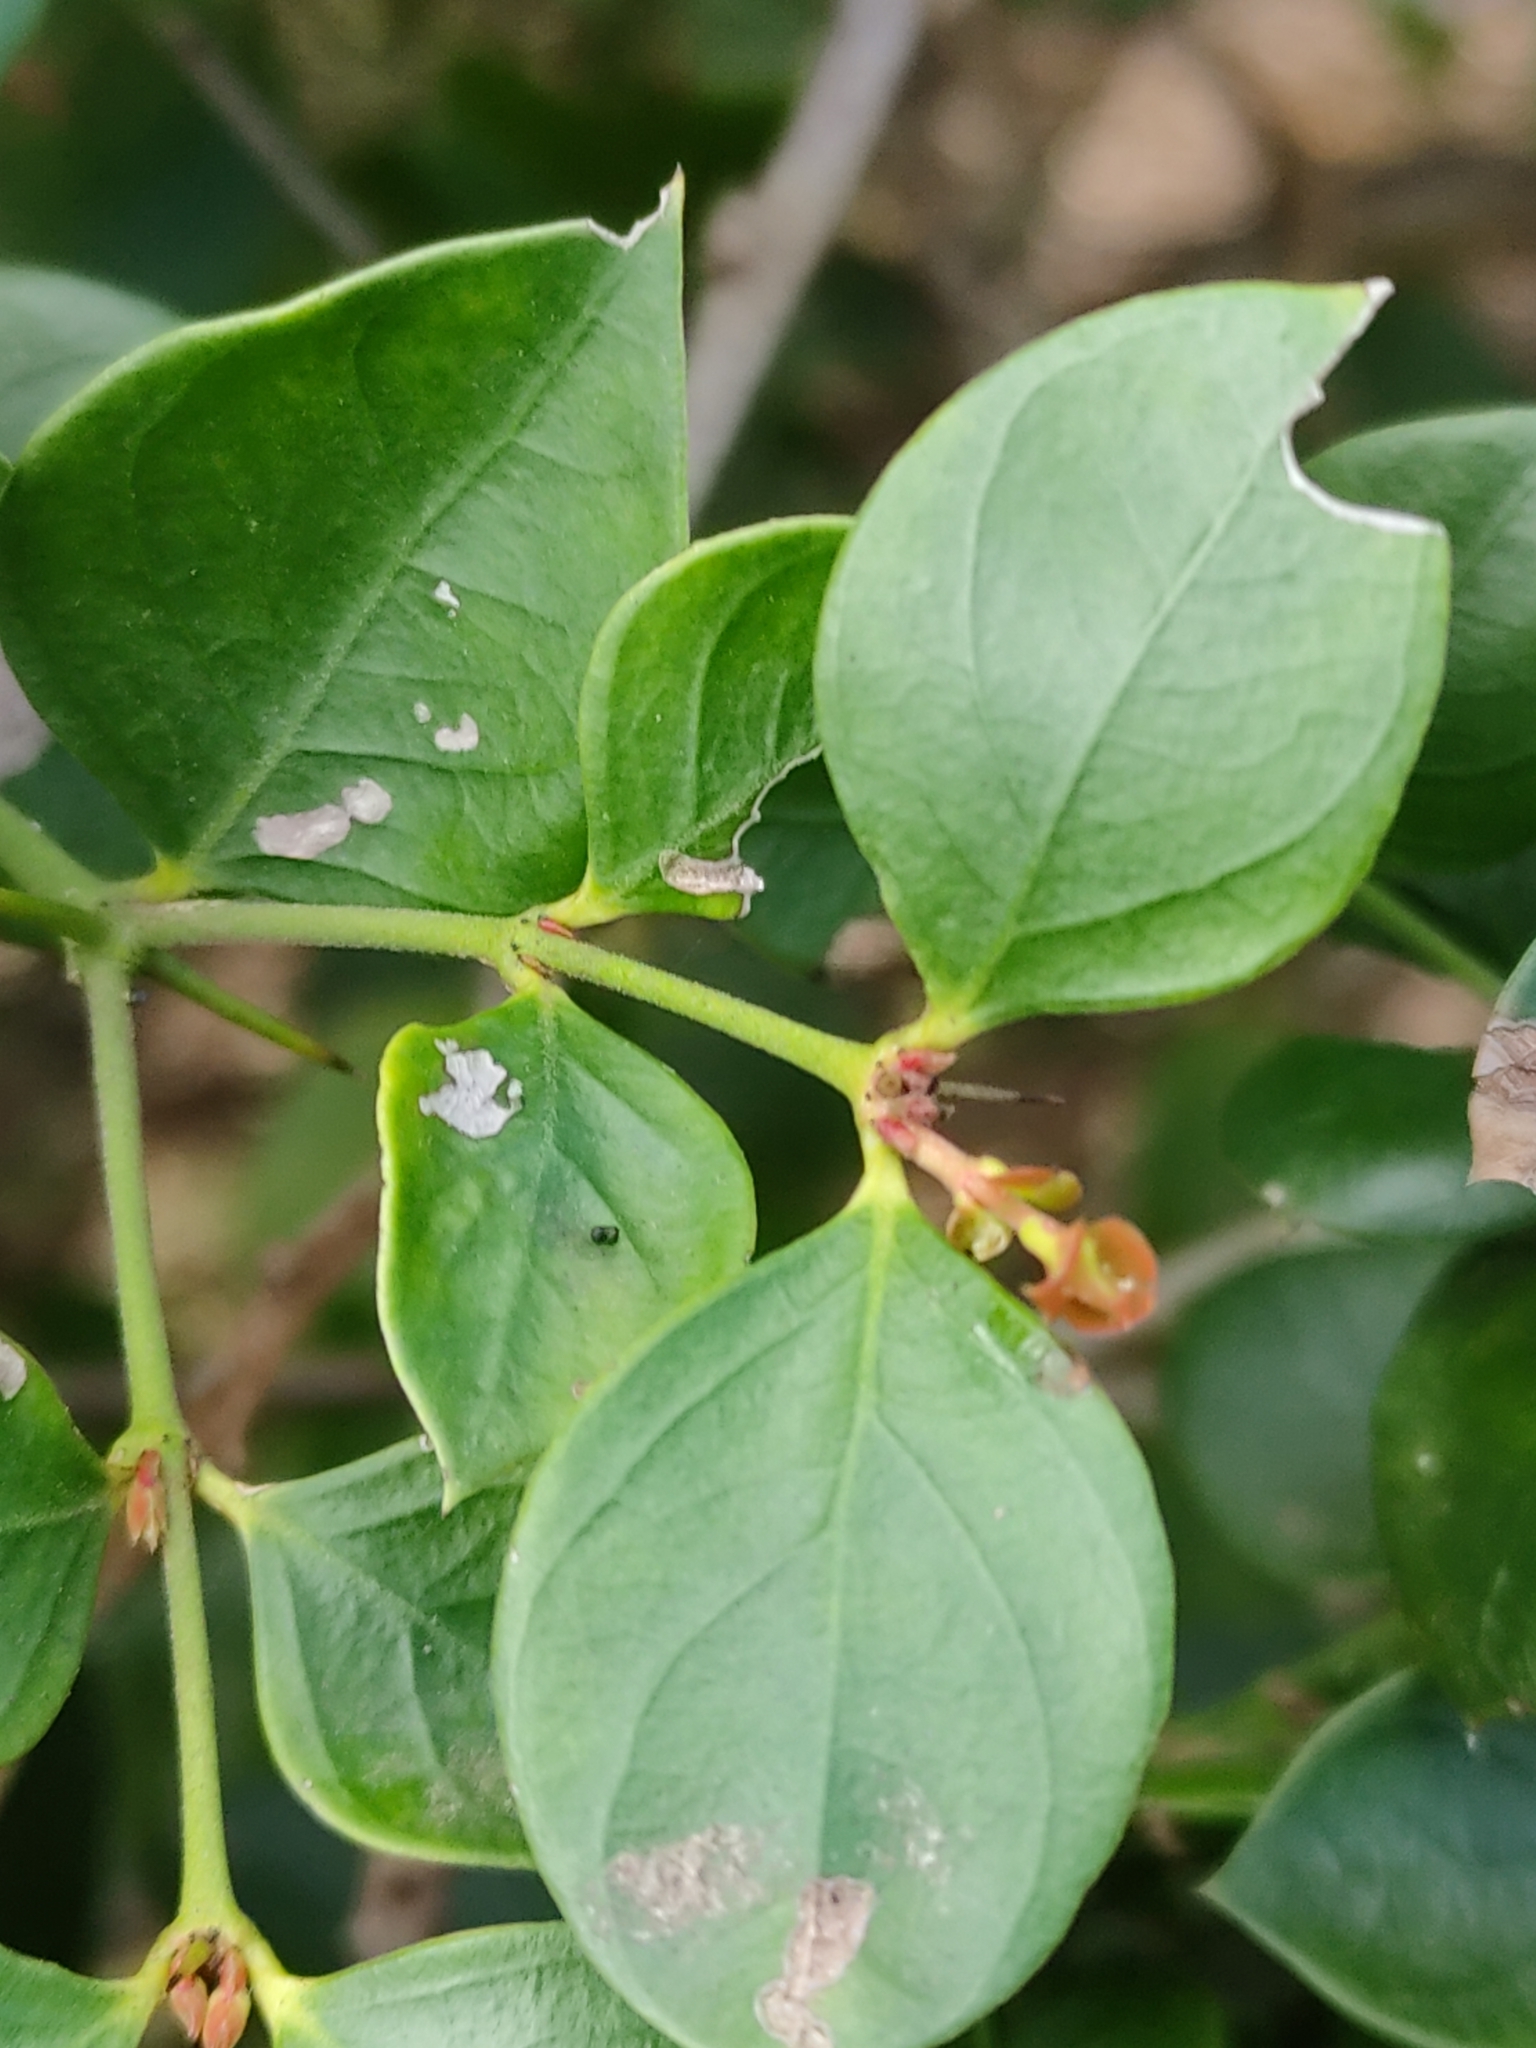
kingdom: Plantae
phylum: Tracheophyta
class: Magnoliopsida
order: Gentianales
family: Apocynaceae
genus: Carissa
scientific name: Carissa ovata
